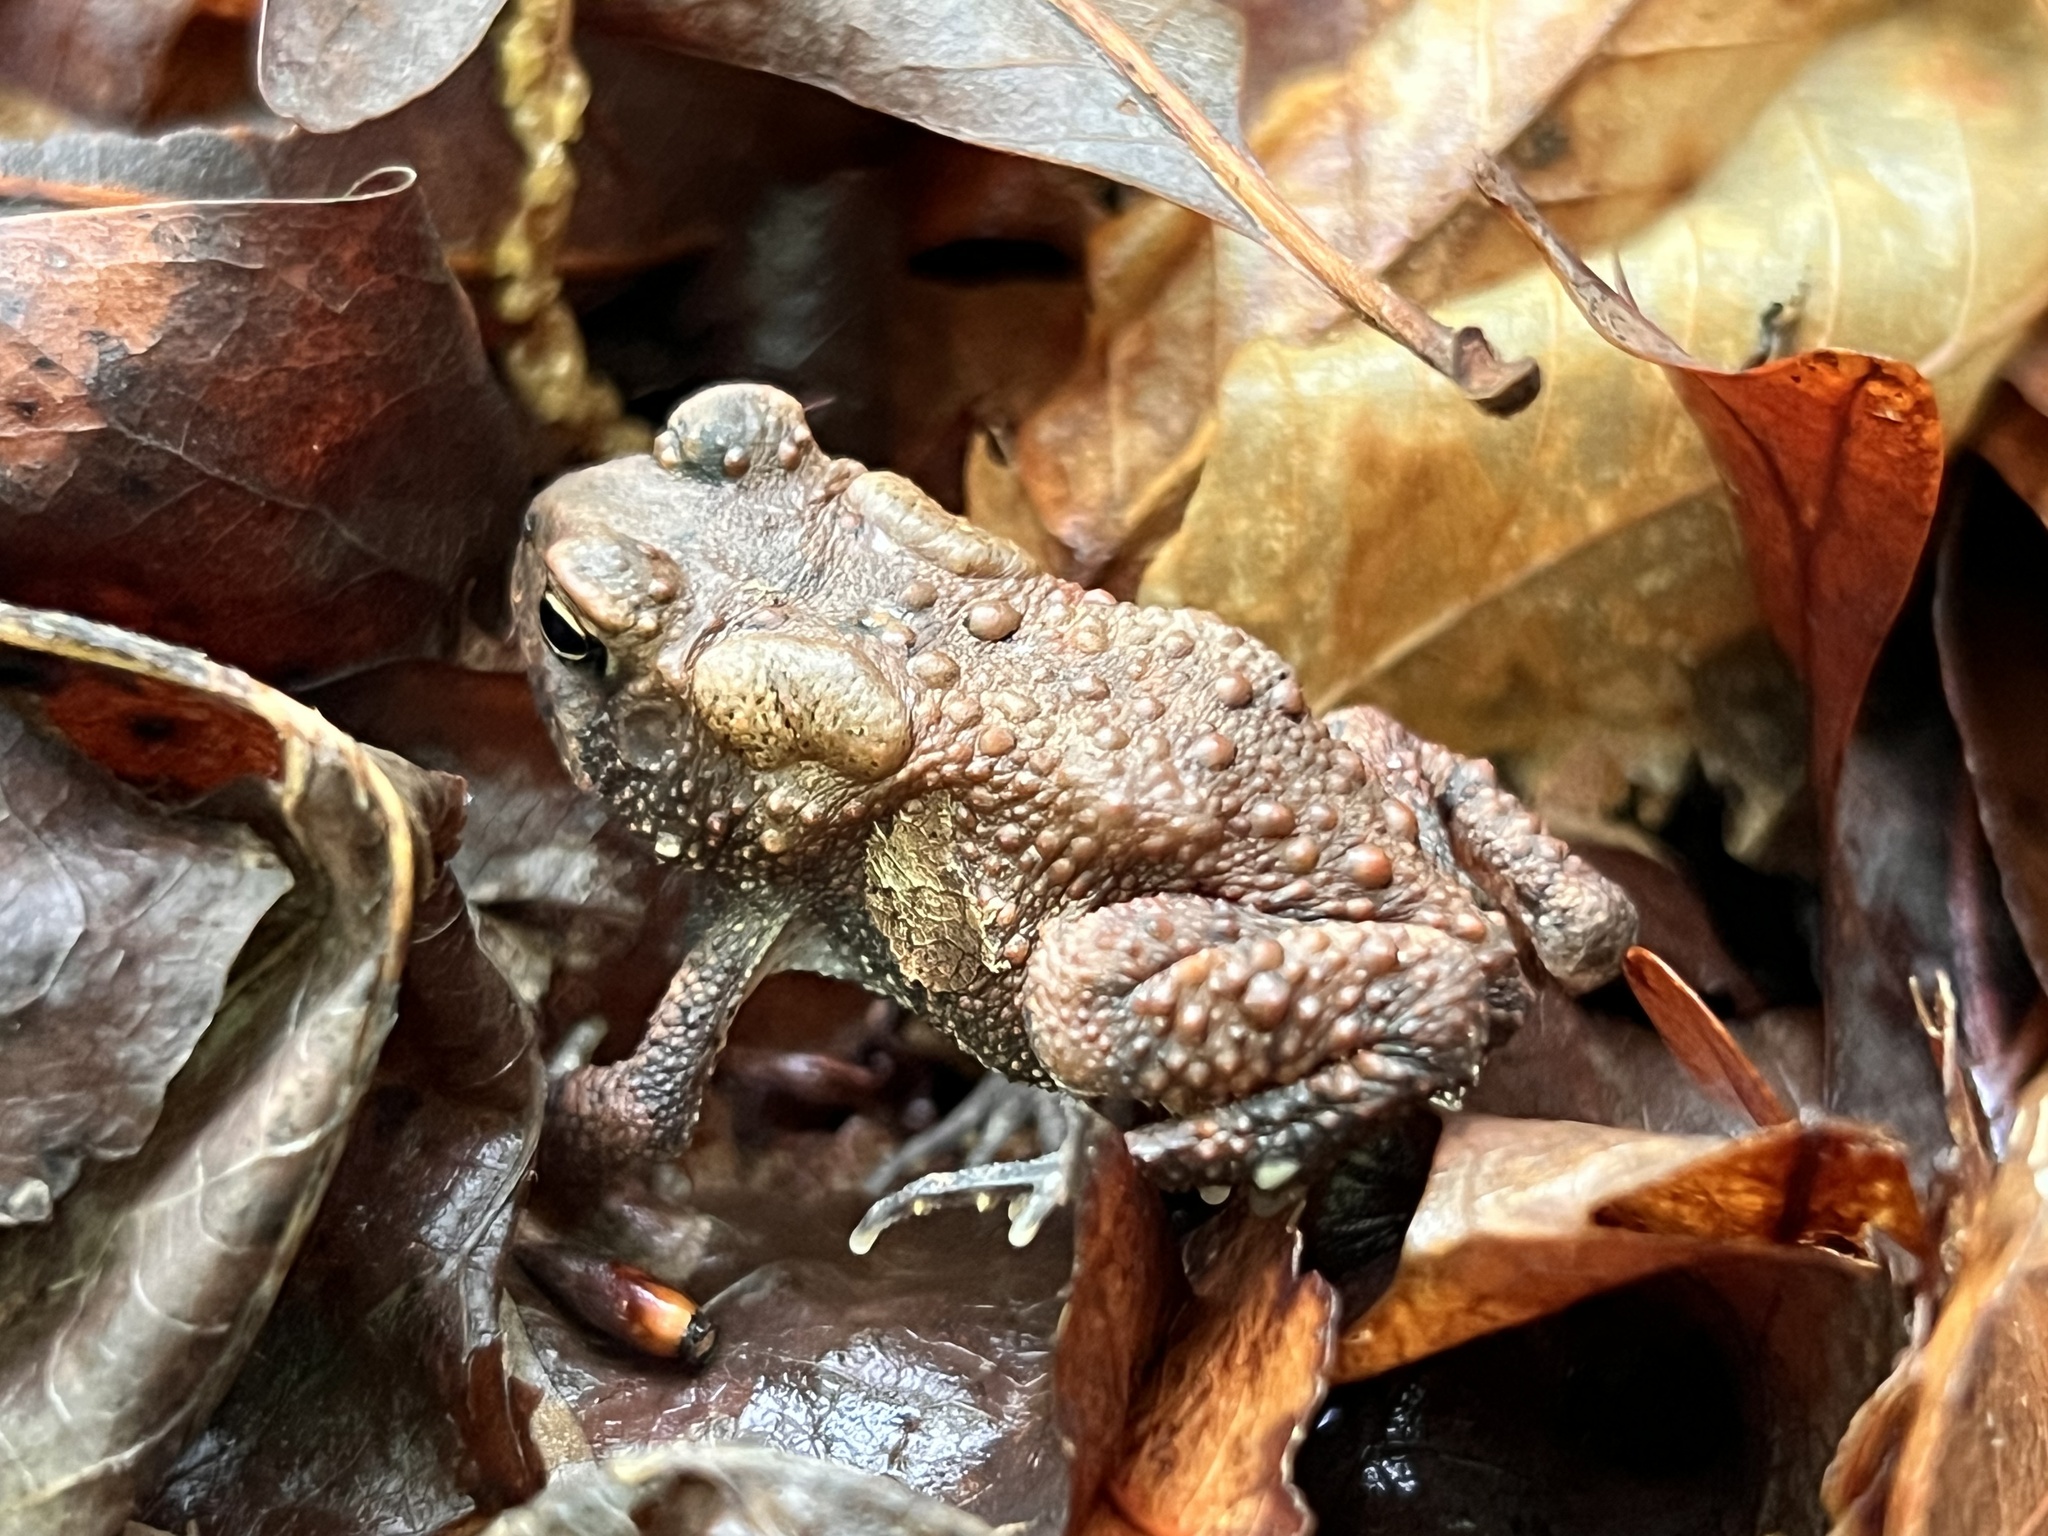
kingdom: Animalia
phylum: Chordata
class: Amphibia
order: Anura
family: Bufonidae
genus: Anaxyrus
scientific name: Anaxyrus americanus
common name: American toad
